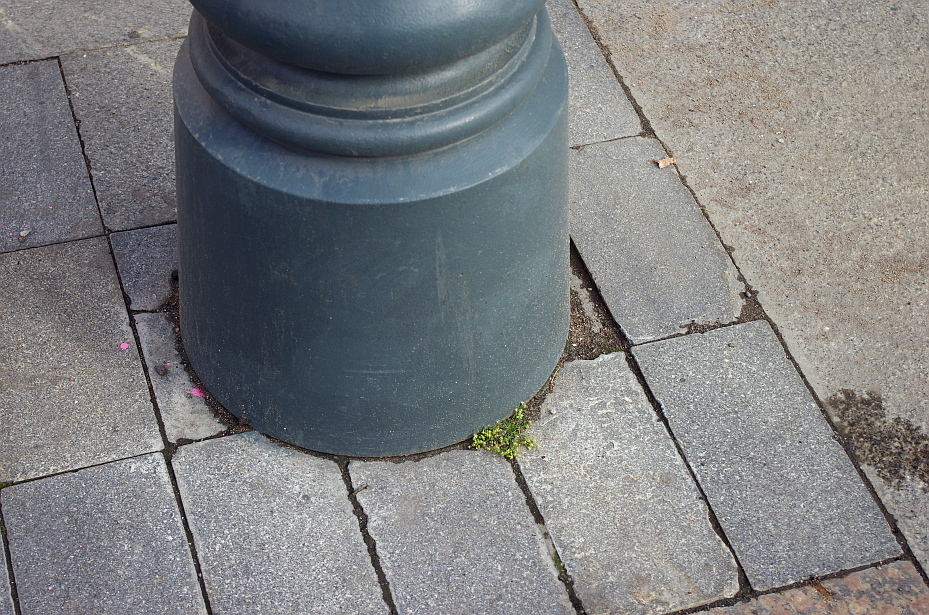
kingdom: Plantae
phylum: Tracheophyta
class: Magnoliopsida
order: Caryophyllales
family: Caryophyllaceae
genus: Sagina
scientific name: Sagina procumbens
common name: Procumbent pearlwort
